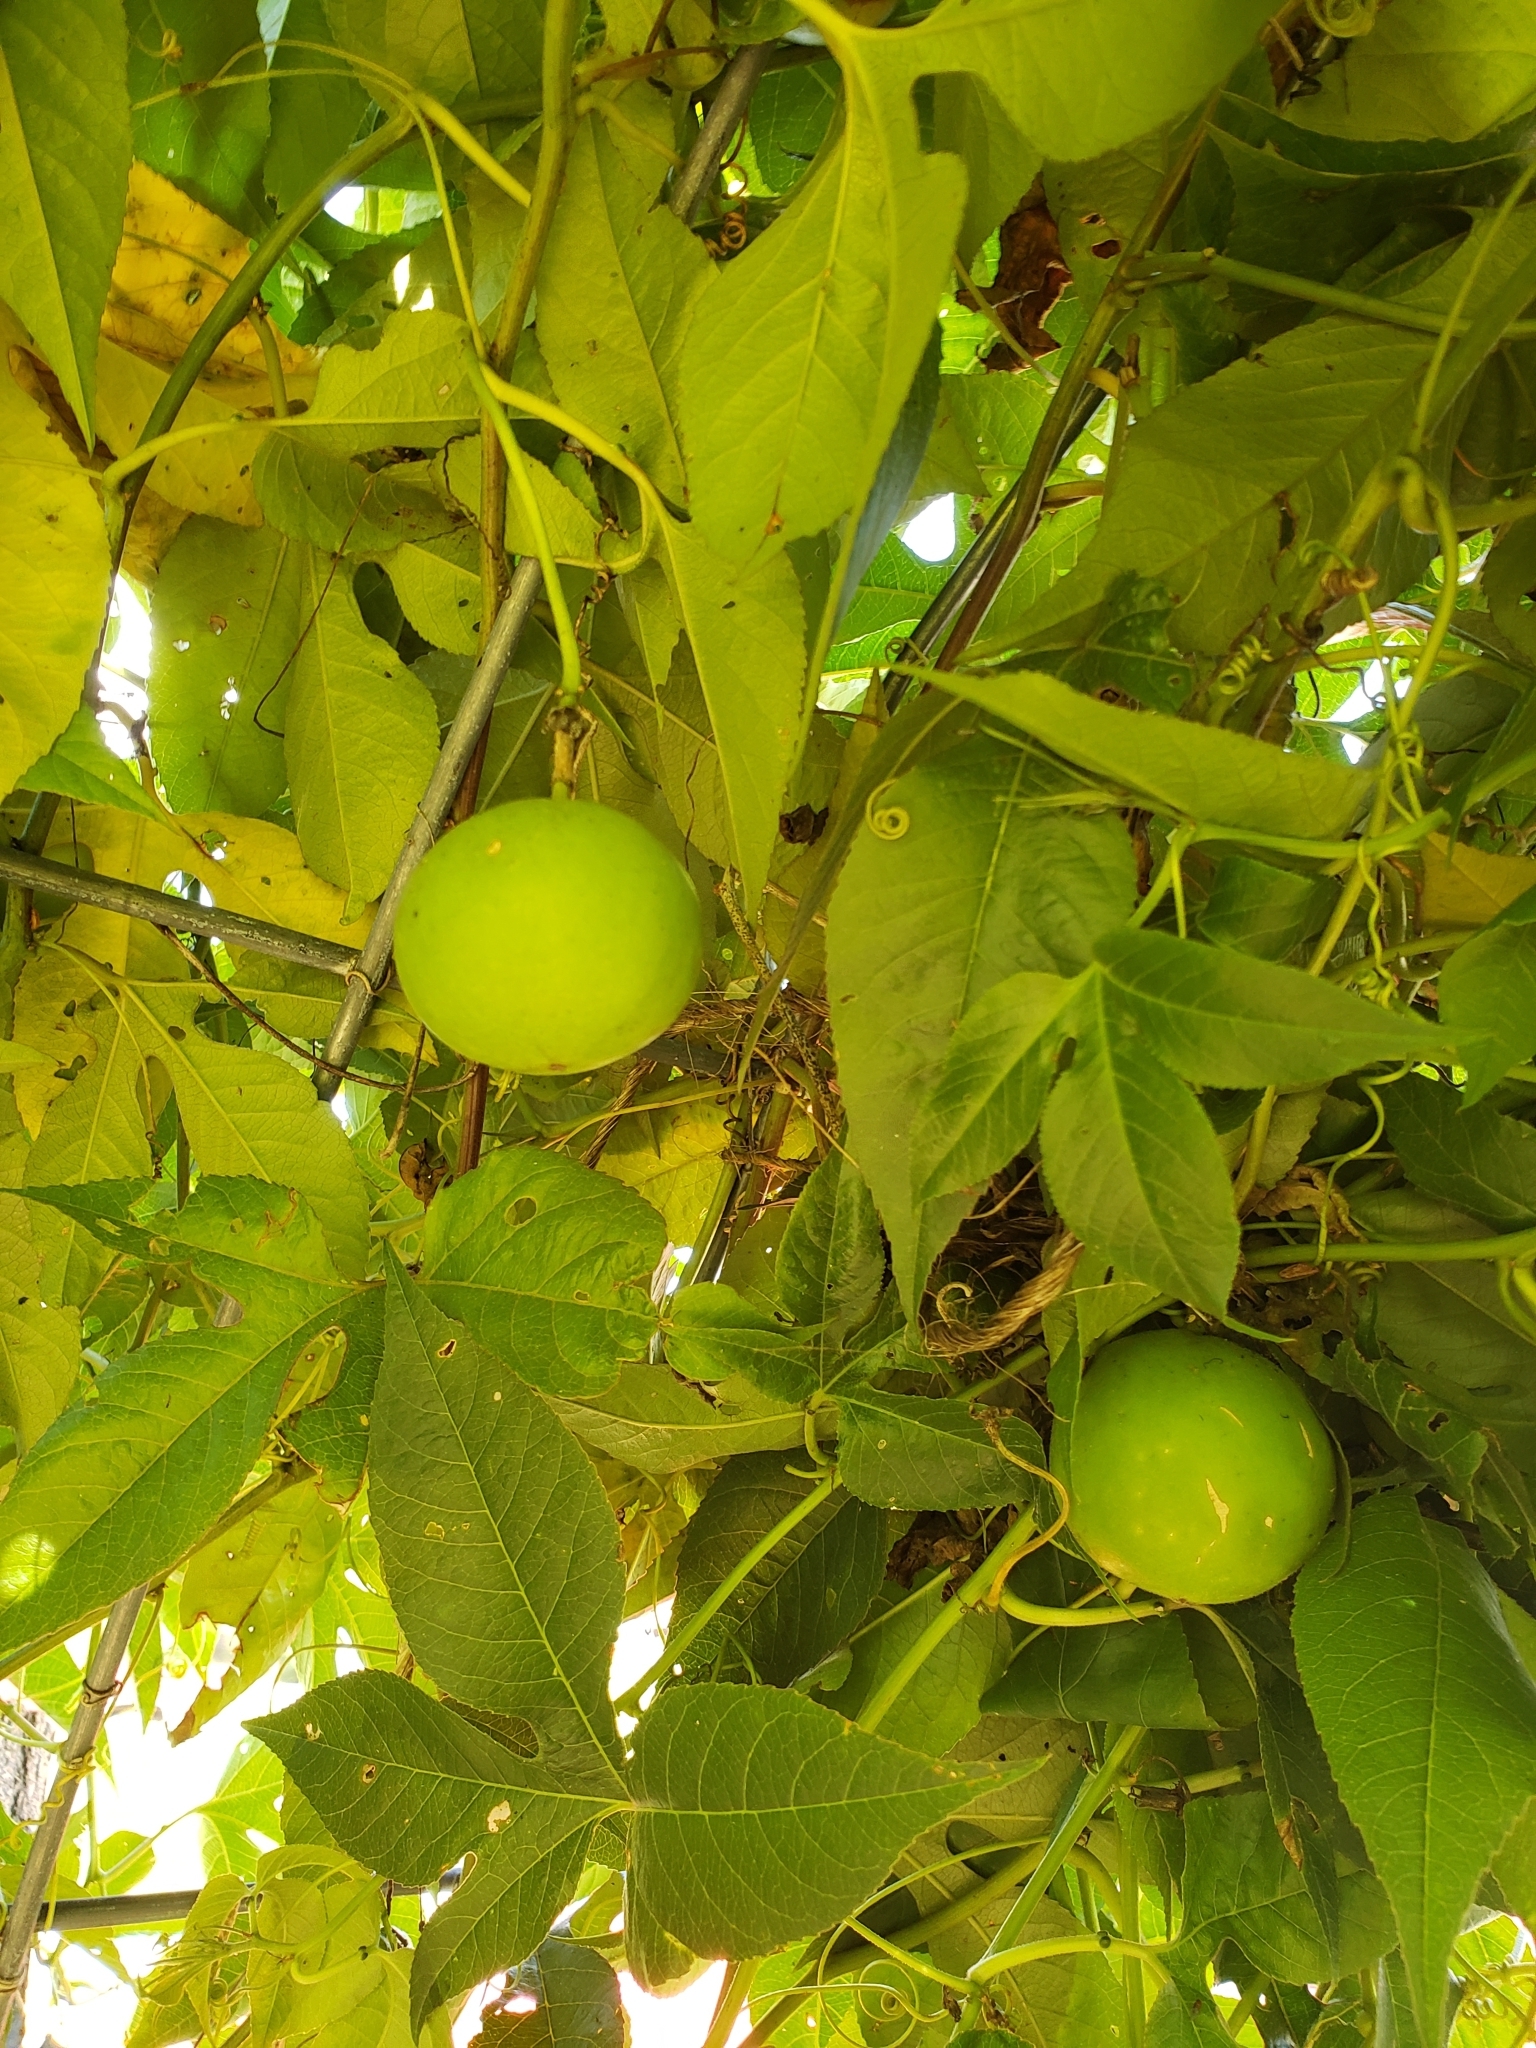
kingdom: Plantae
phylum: Tracheophyta
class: Magnoliopsida
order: Malpighiales
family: Passifloraceae
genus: Passiflora
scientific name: Passiflora incarnata
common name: Apricot-vine
